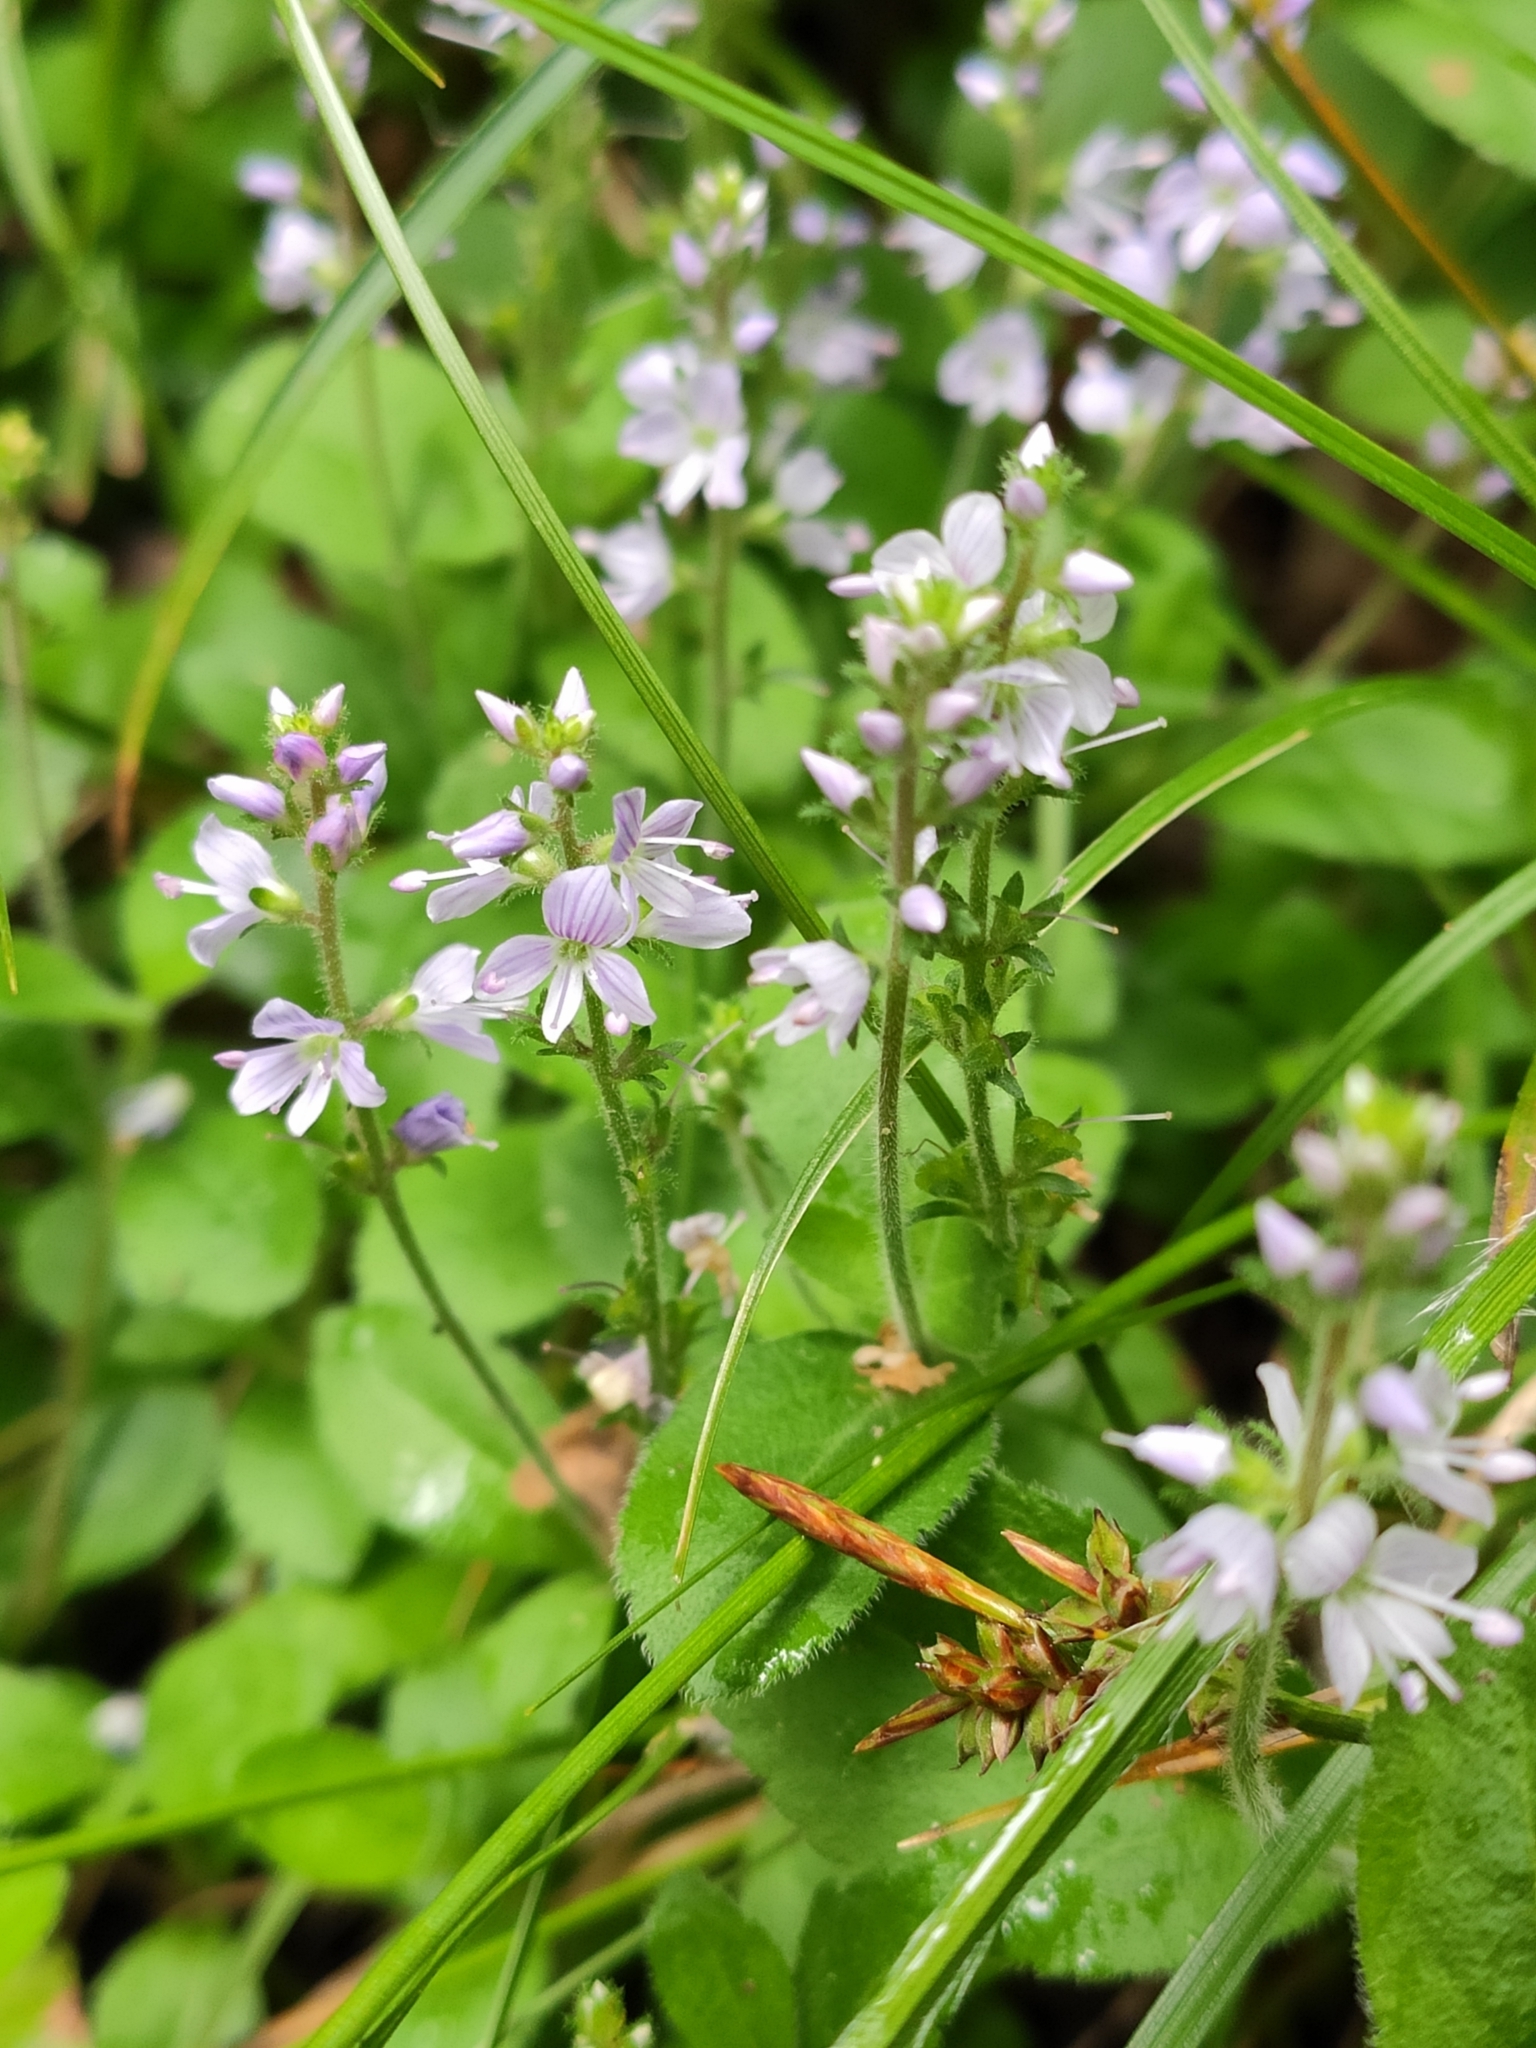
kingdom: Plantae
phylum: Tracheophyta
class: Magnoliopsida
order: Lamiales
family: Plantaginaceae
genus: Veronica
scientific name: Veronica officinalis
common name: Common speedwell
